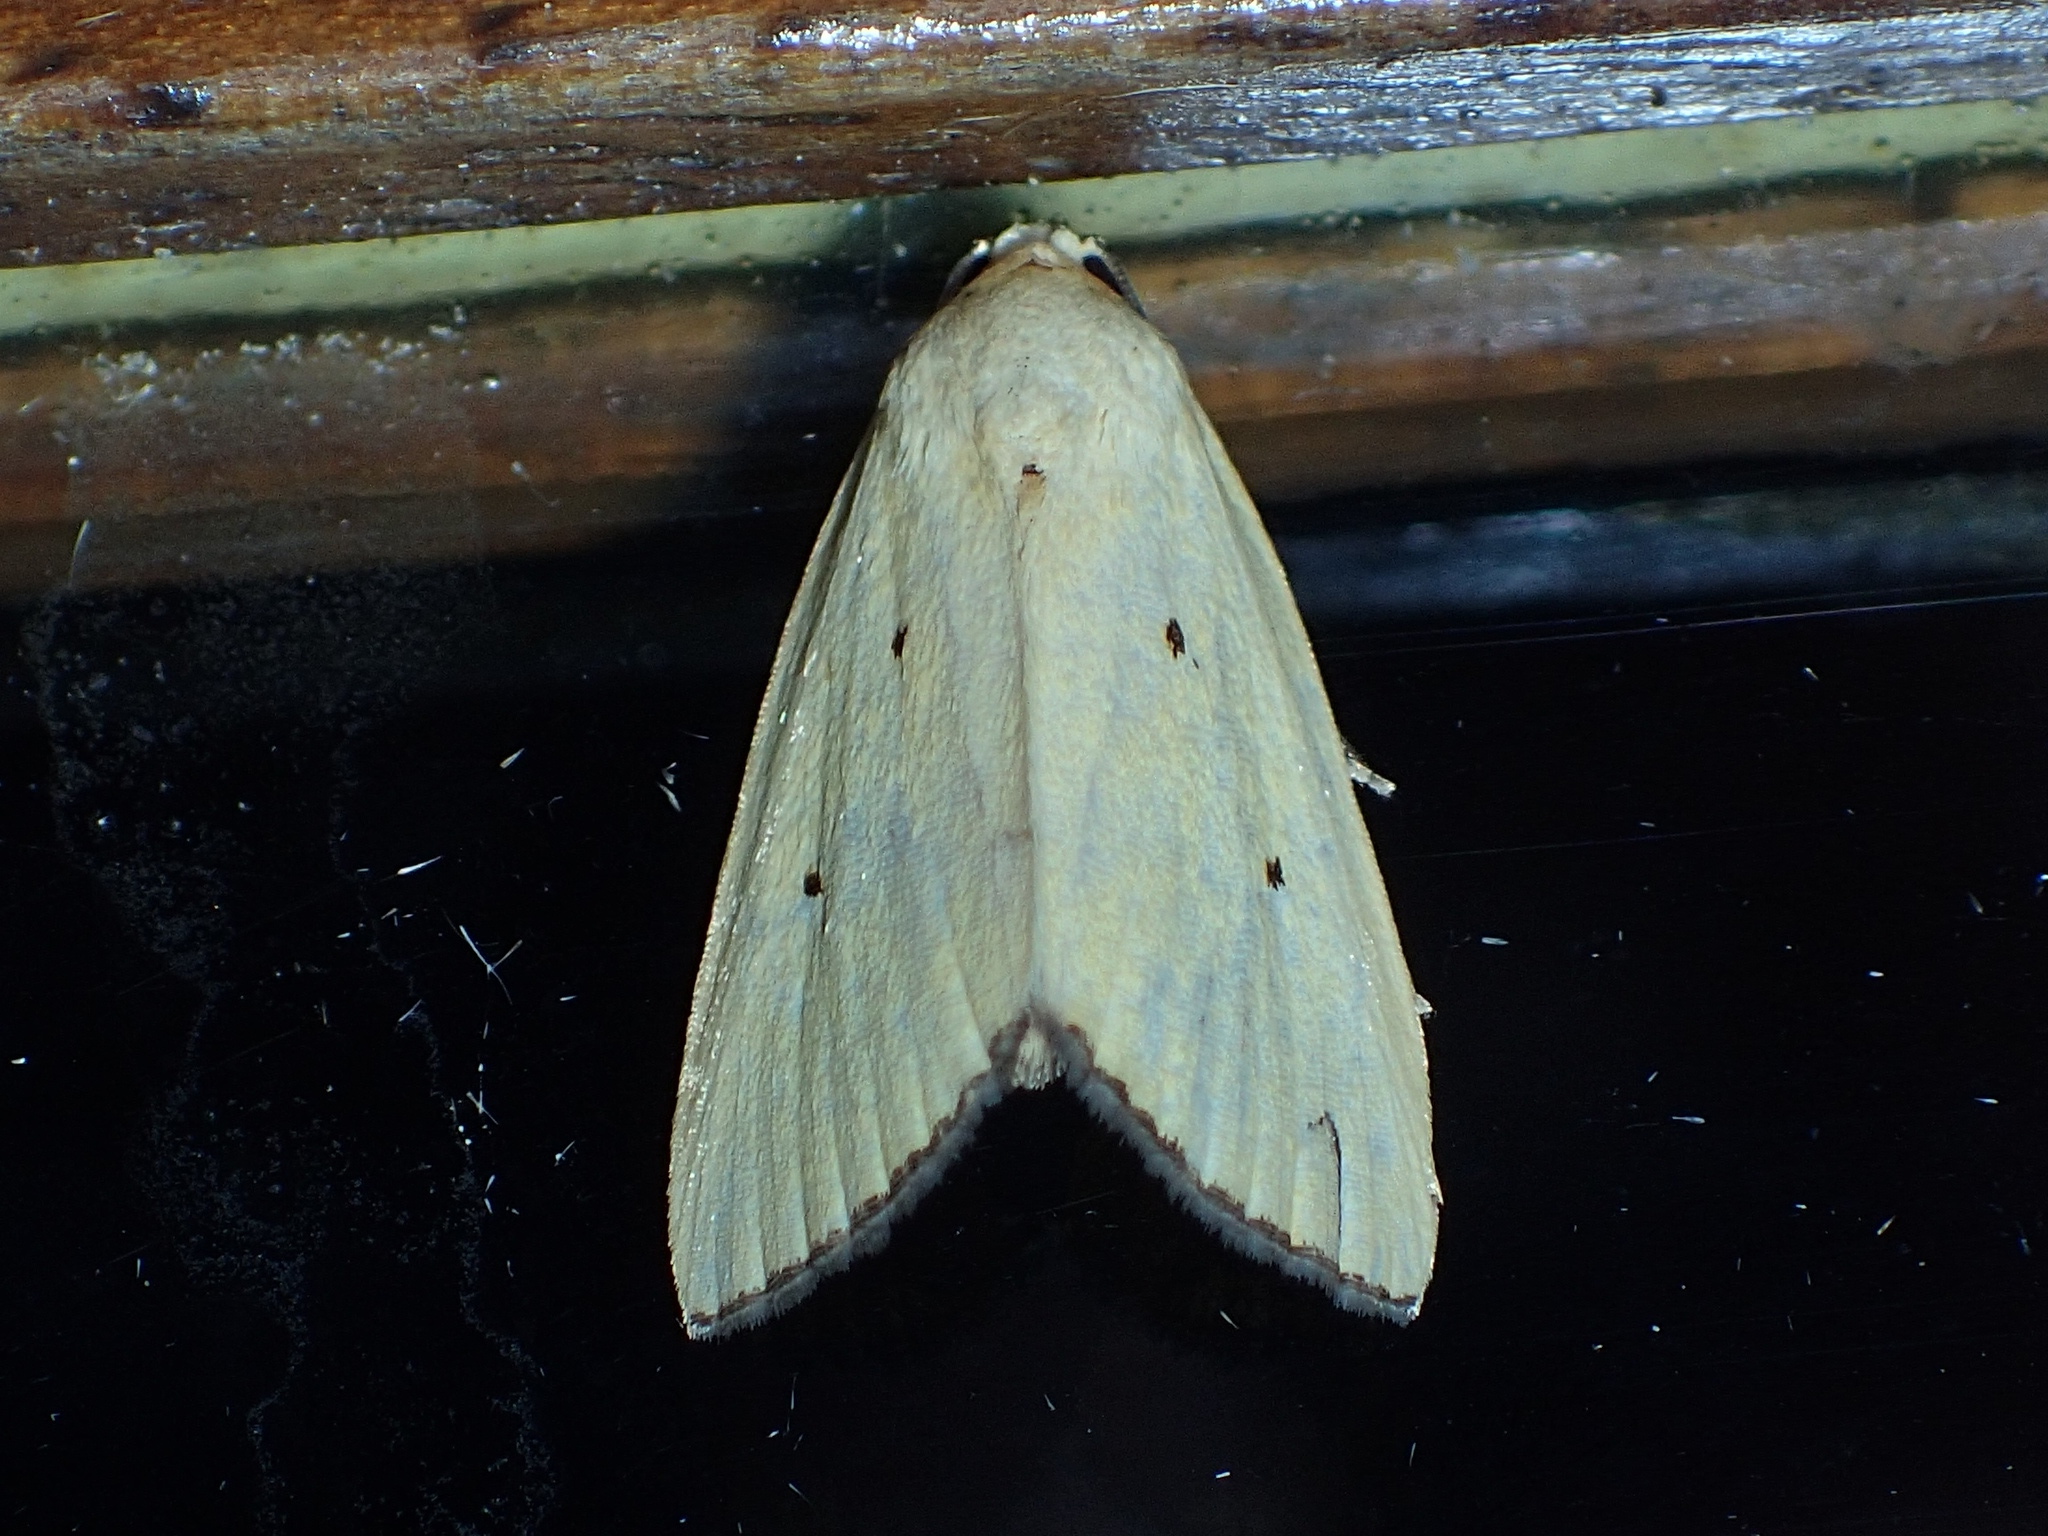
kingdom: Animalia
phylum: Arthropoda
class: Insecta
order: Lepidoptera
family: Noctuidae
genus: Marimatha
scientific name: Marimatha nigrofimbria
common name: Black-bordered lemon moth
